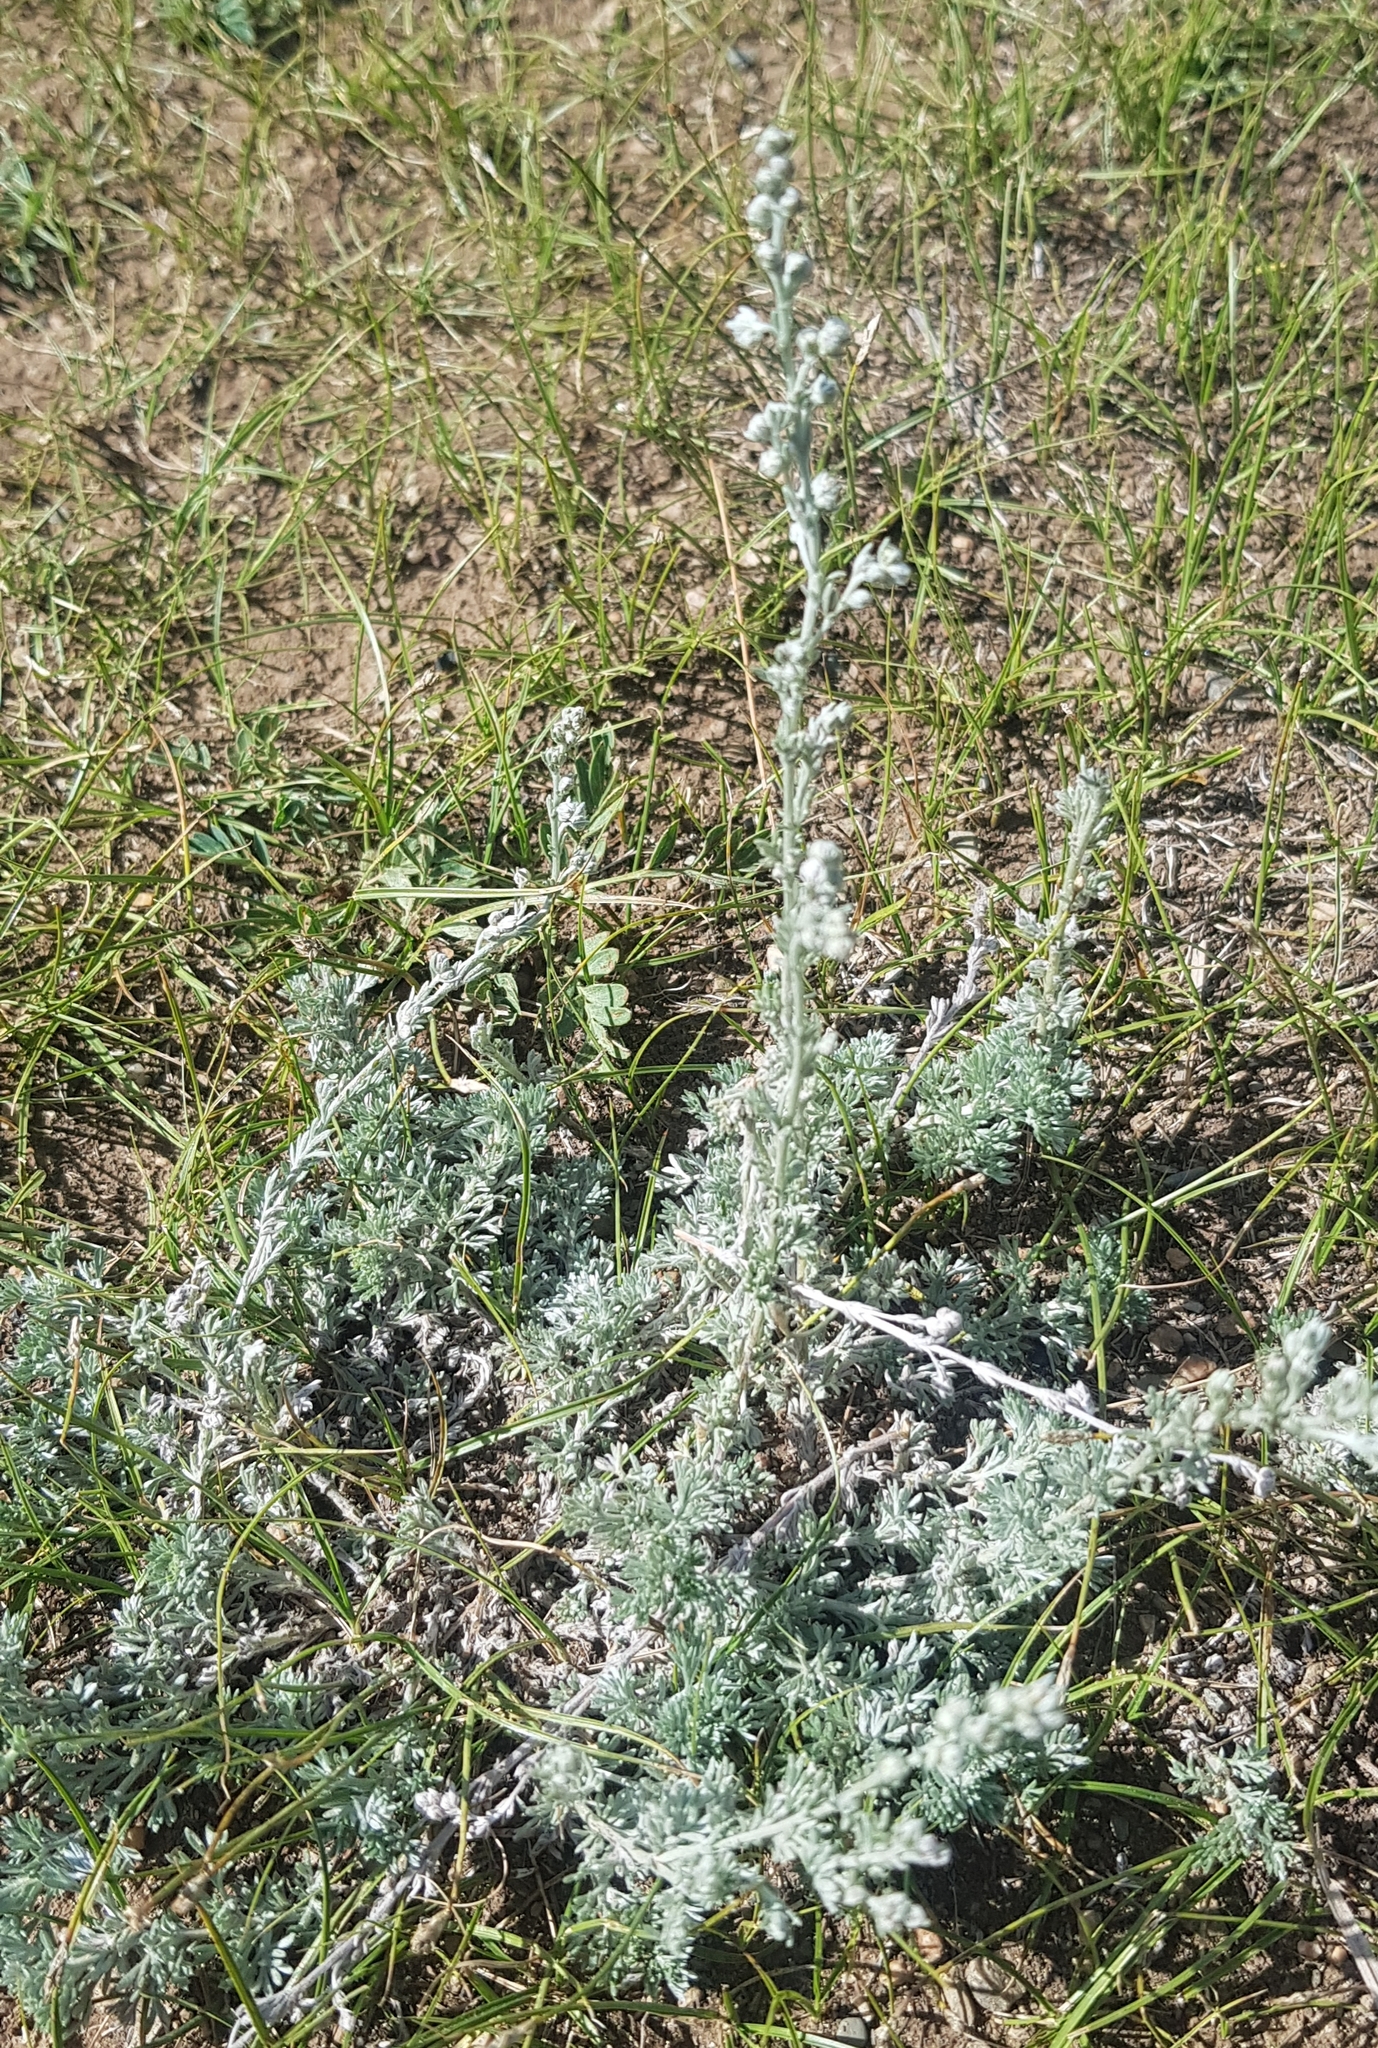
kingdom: Plantae
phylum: Tracheophyta
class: Magnoliopsida
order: Asterales
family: Asteraceae
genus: Artemisia
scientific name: Artemisia frigida
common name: Prairie sagewort
